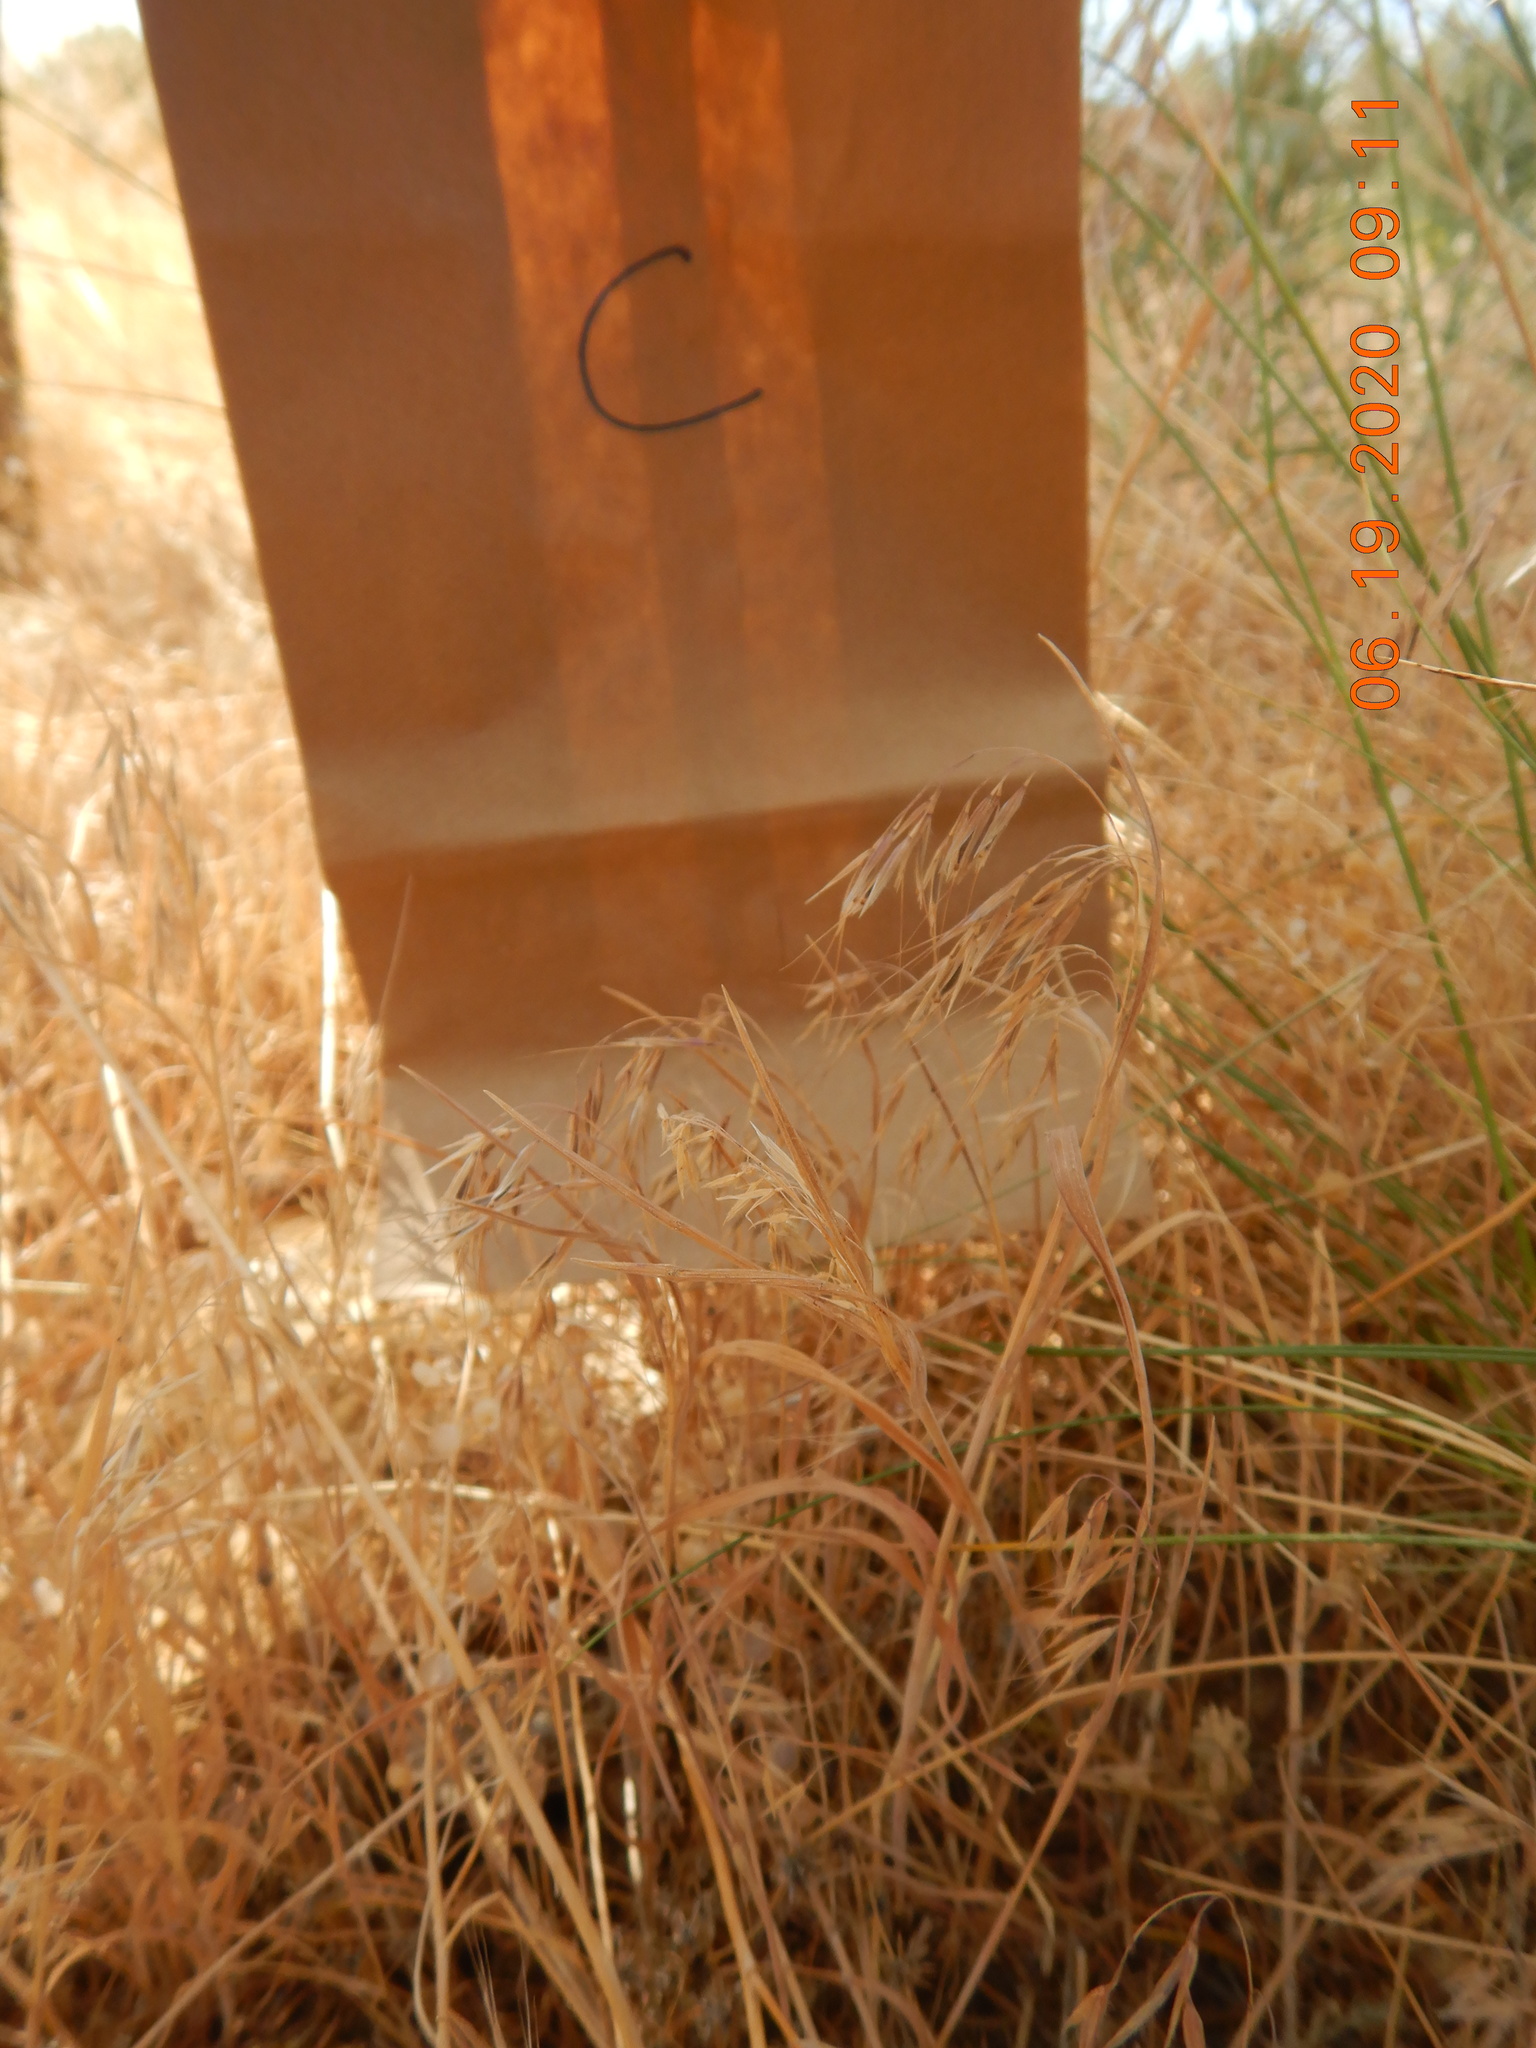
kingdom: Plantae
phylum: Tracheophyta
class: Liliopsida
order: Poales
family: Poaceae
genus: Bromus
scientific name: Bromus tectorum
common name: Cheatgrass
